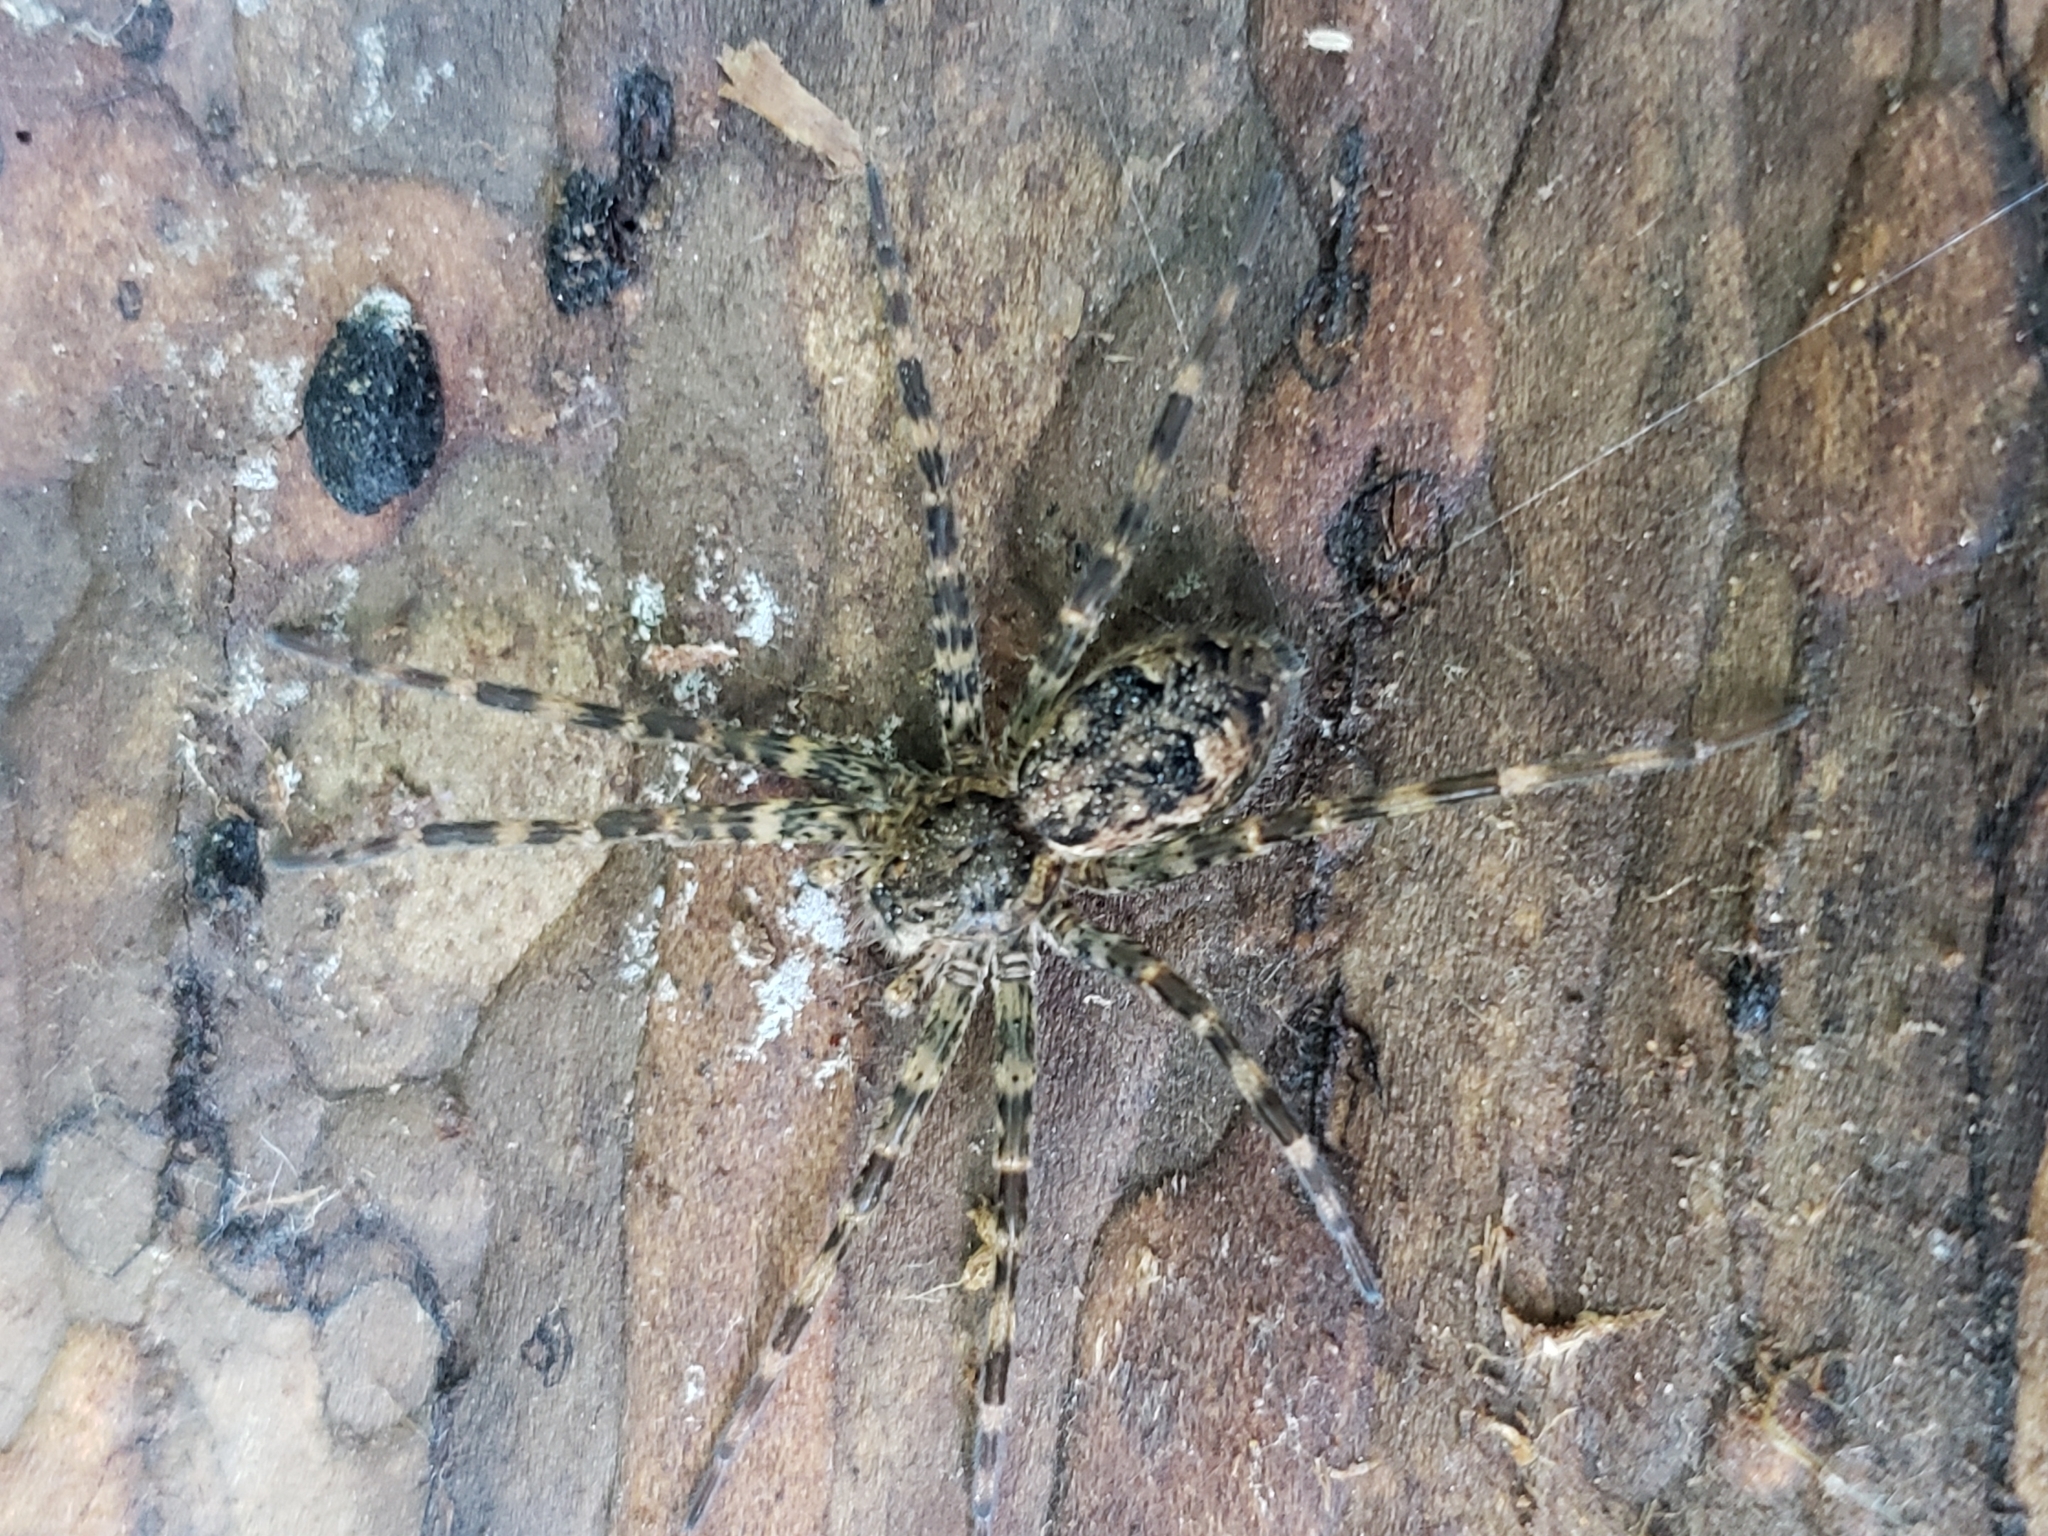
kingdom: Animalia
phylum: Arthropoda
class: Arachnida
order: Araneae
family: Pisauridae
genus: Dolomedes
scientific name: Dolomedes tenebrosus
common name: Dark fishing spider
